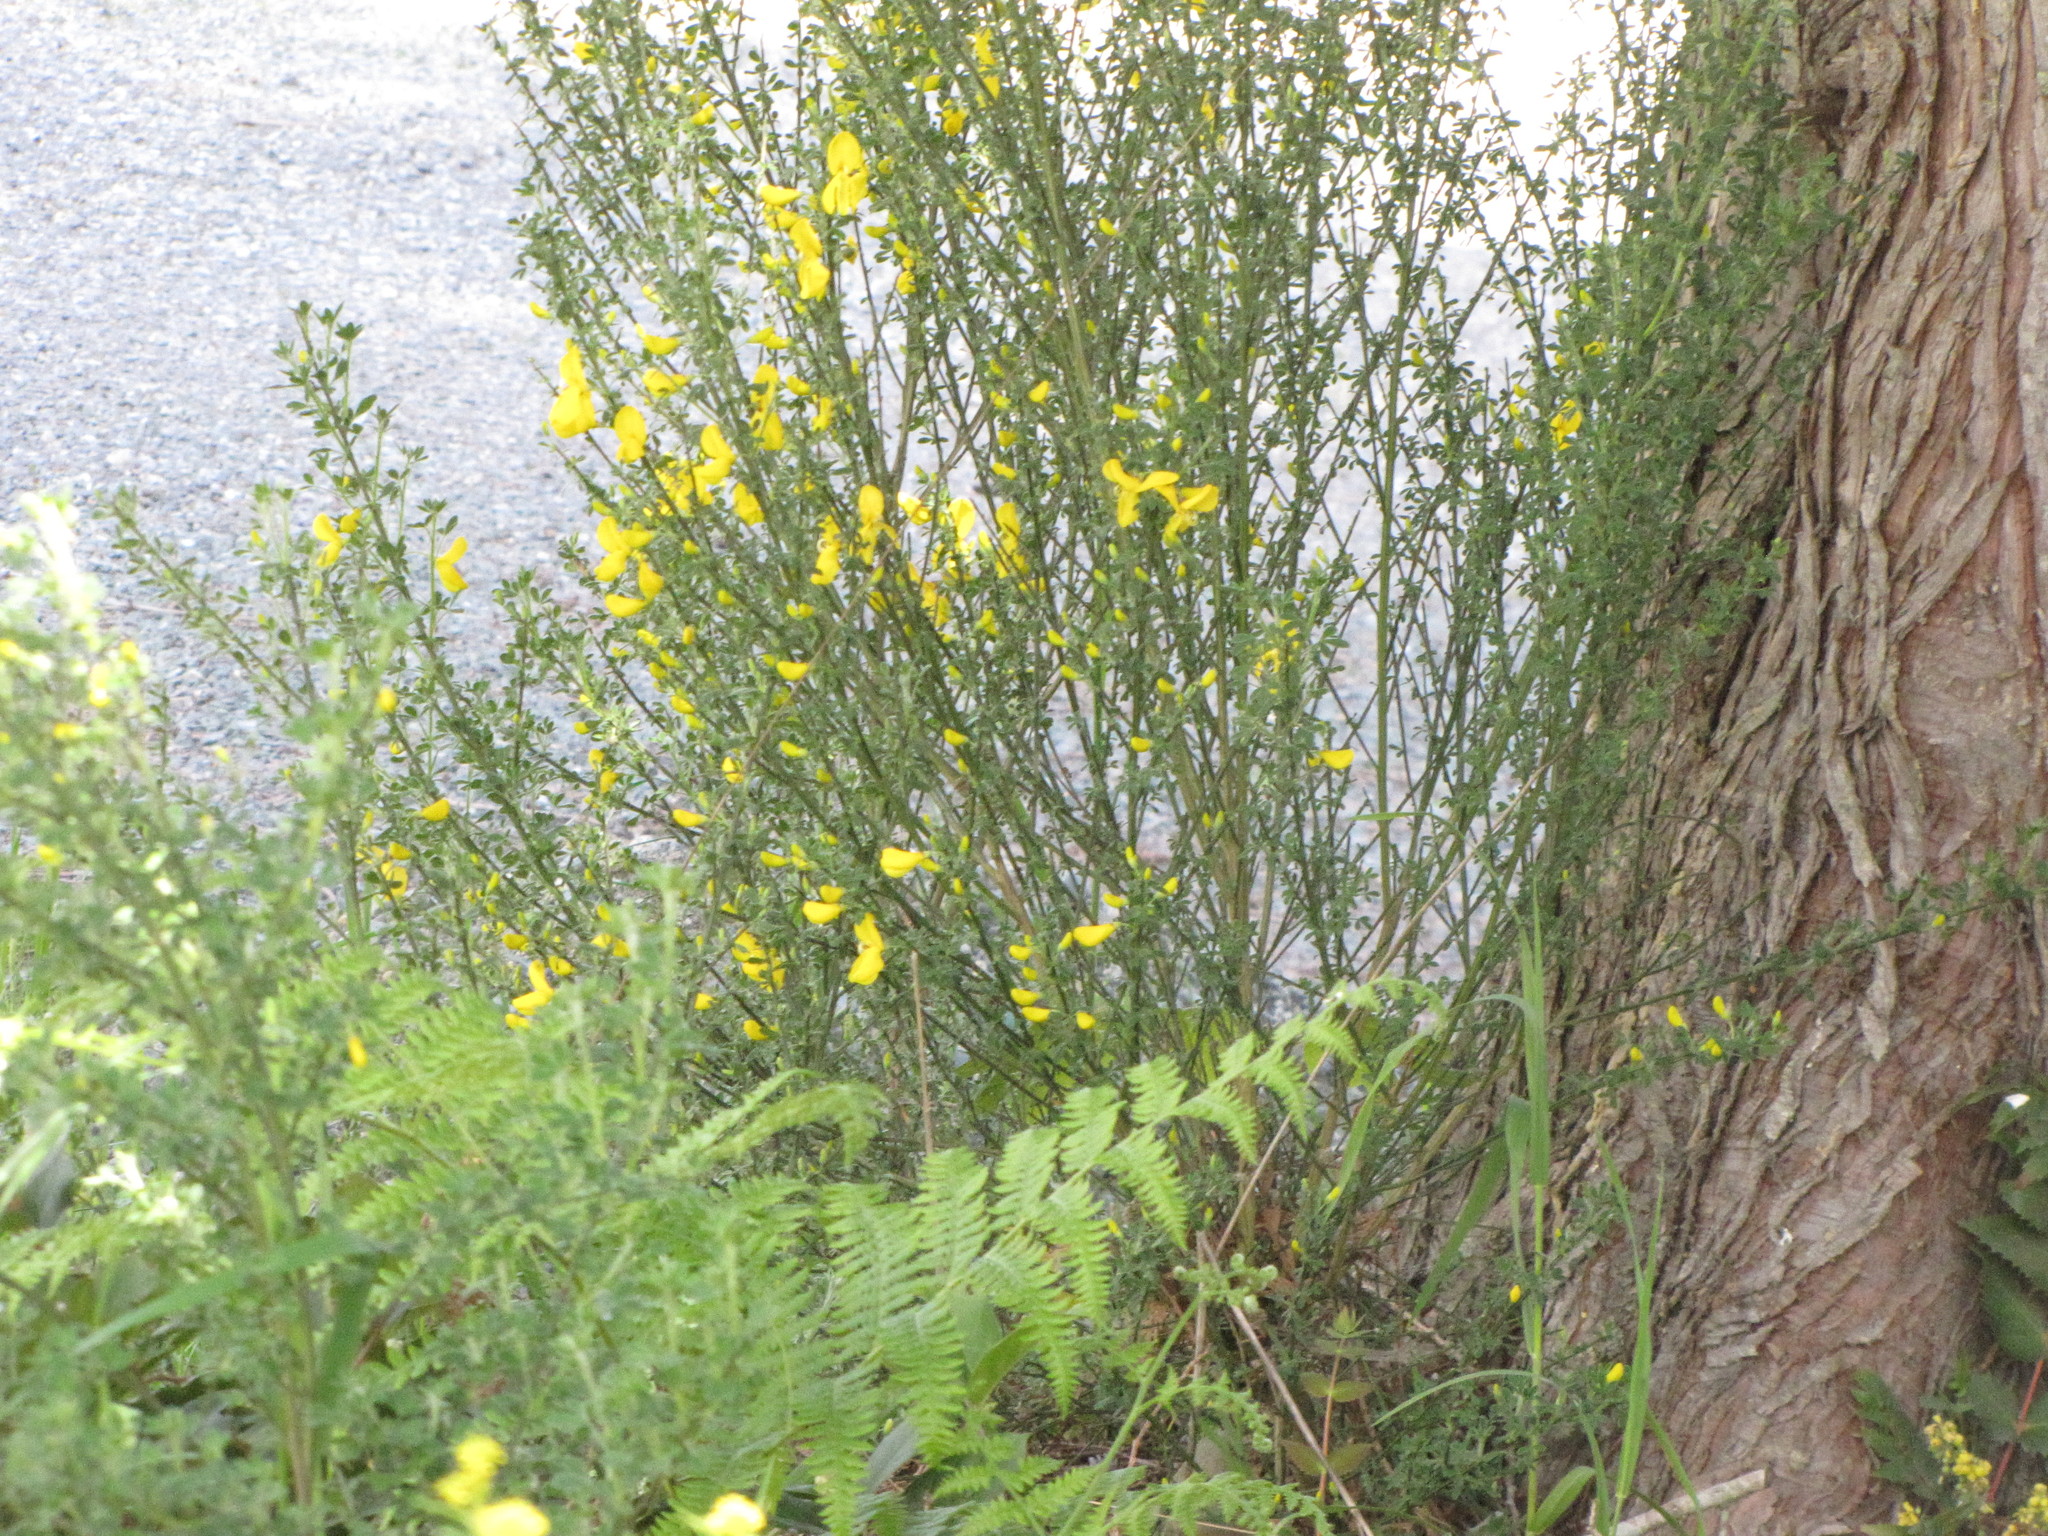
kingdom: Plantae
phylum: Tracheophyta
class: Magnoliopsida
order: Fabales
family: Fabaceae
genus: Cytisus
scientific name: Cytisus scoparius
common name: Scotch broom
